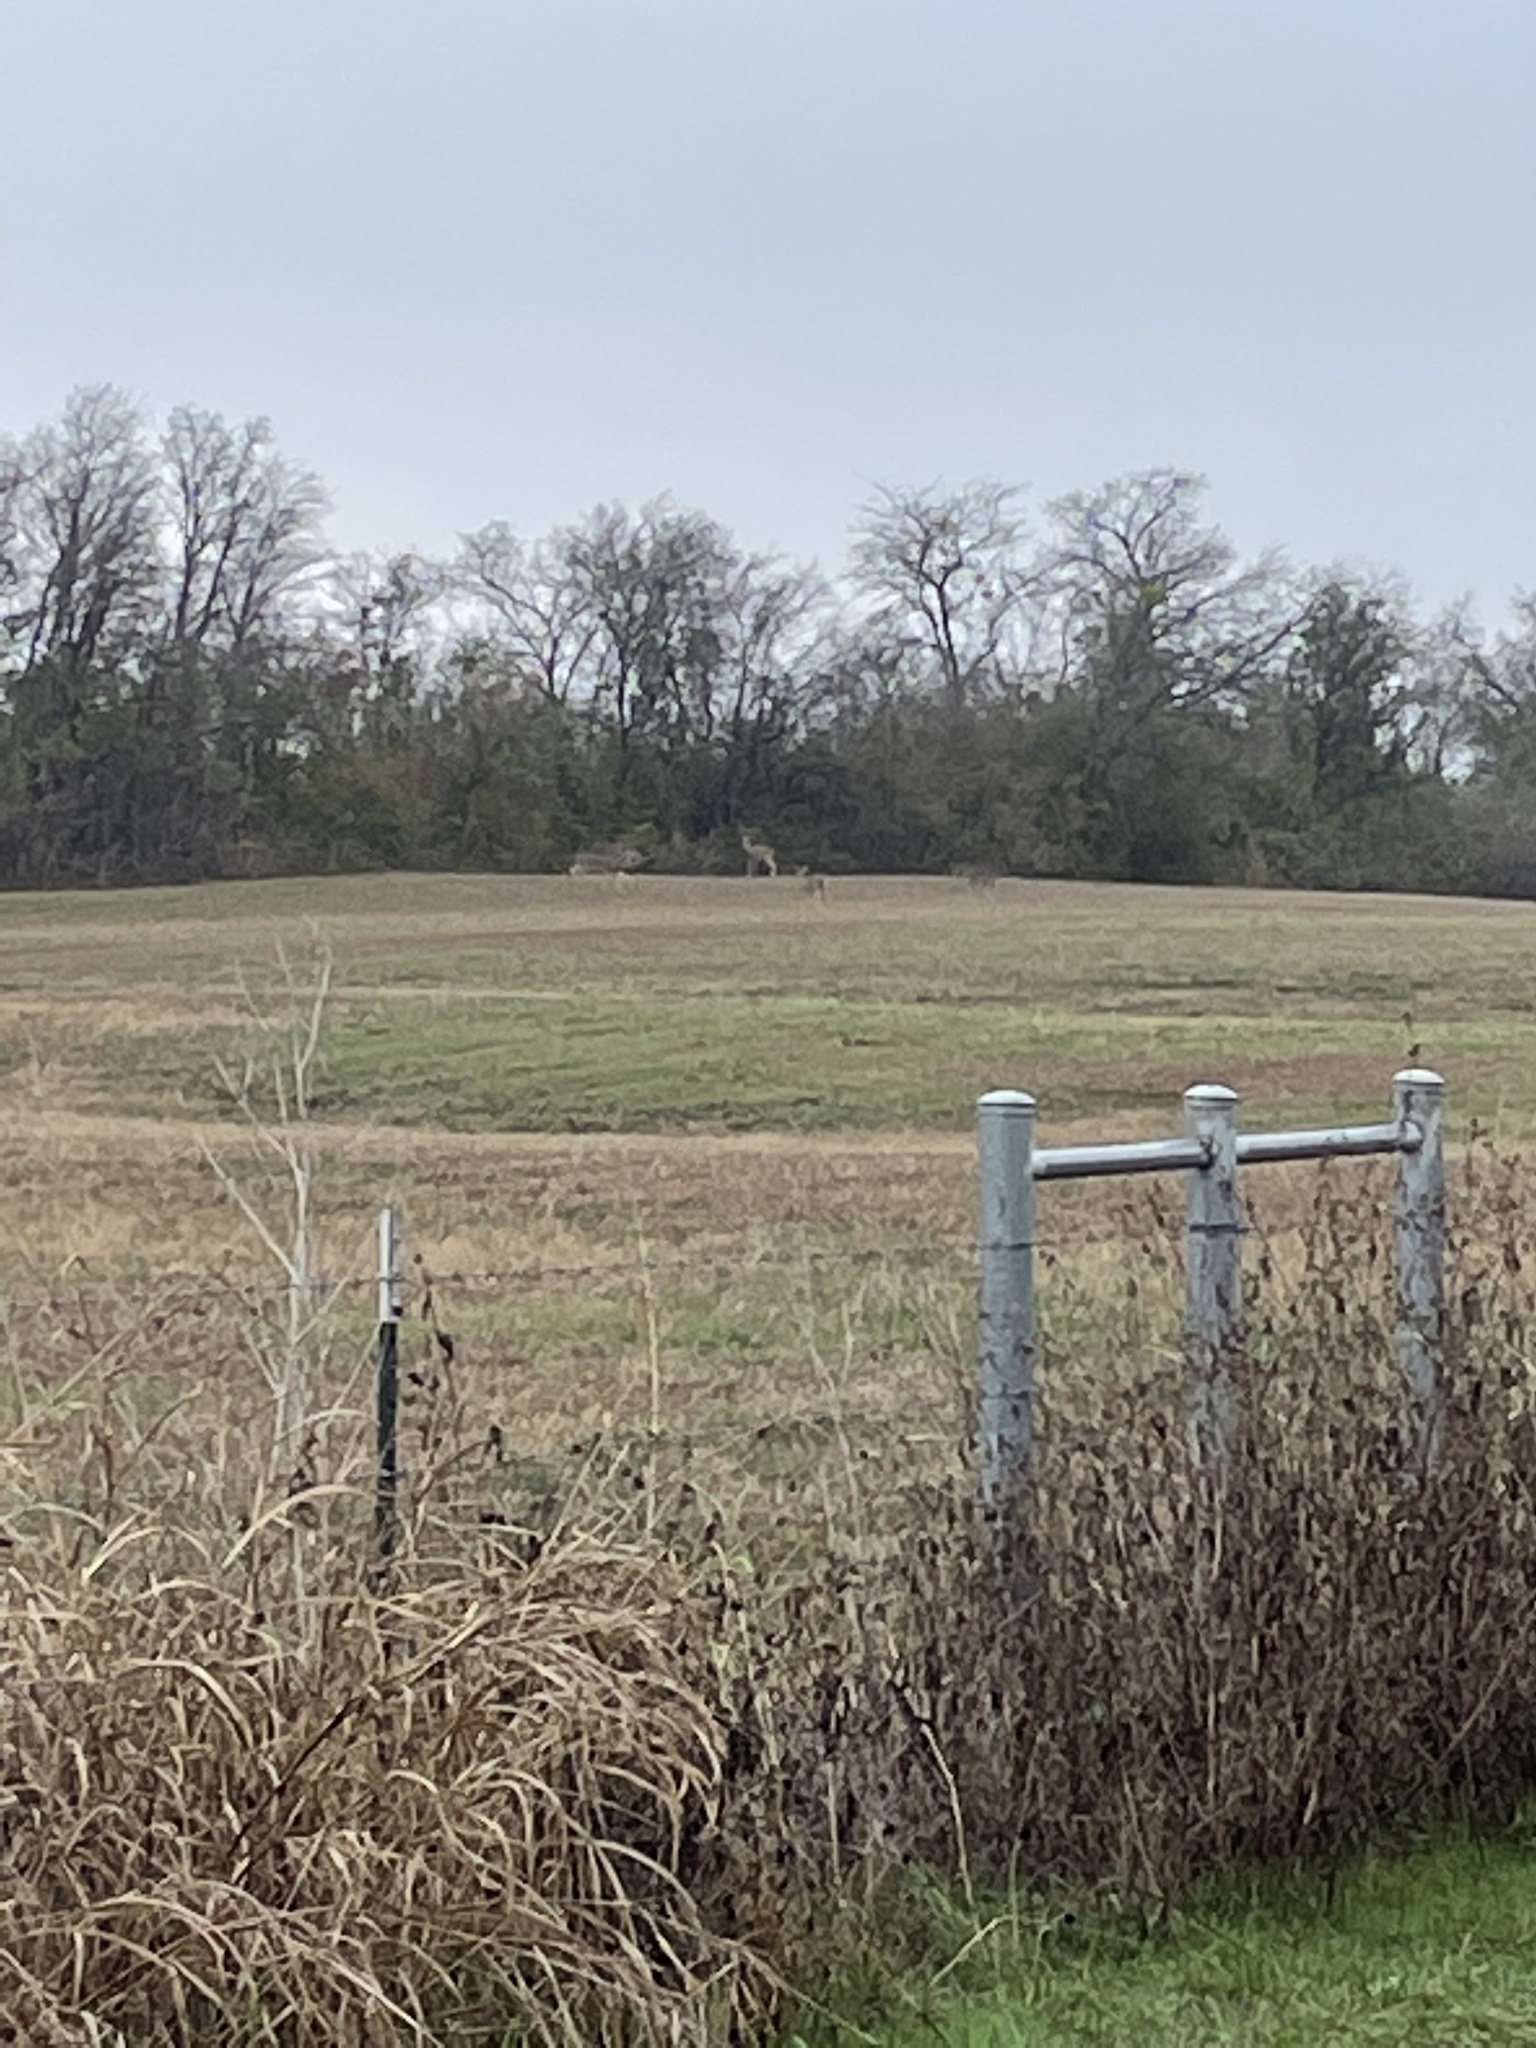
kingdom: Animalia
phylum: Chordata
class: Mammalia
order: Artiodactyla
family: Cervidae
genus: Odocoileus
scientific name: Odocoileus virginianus
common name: White-tailed deer
